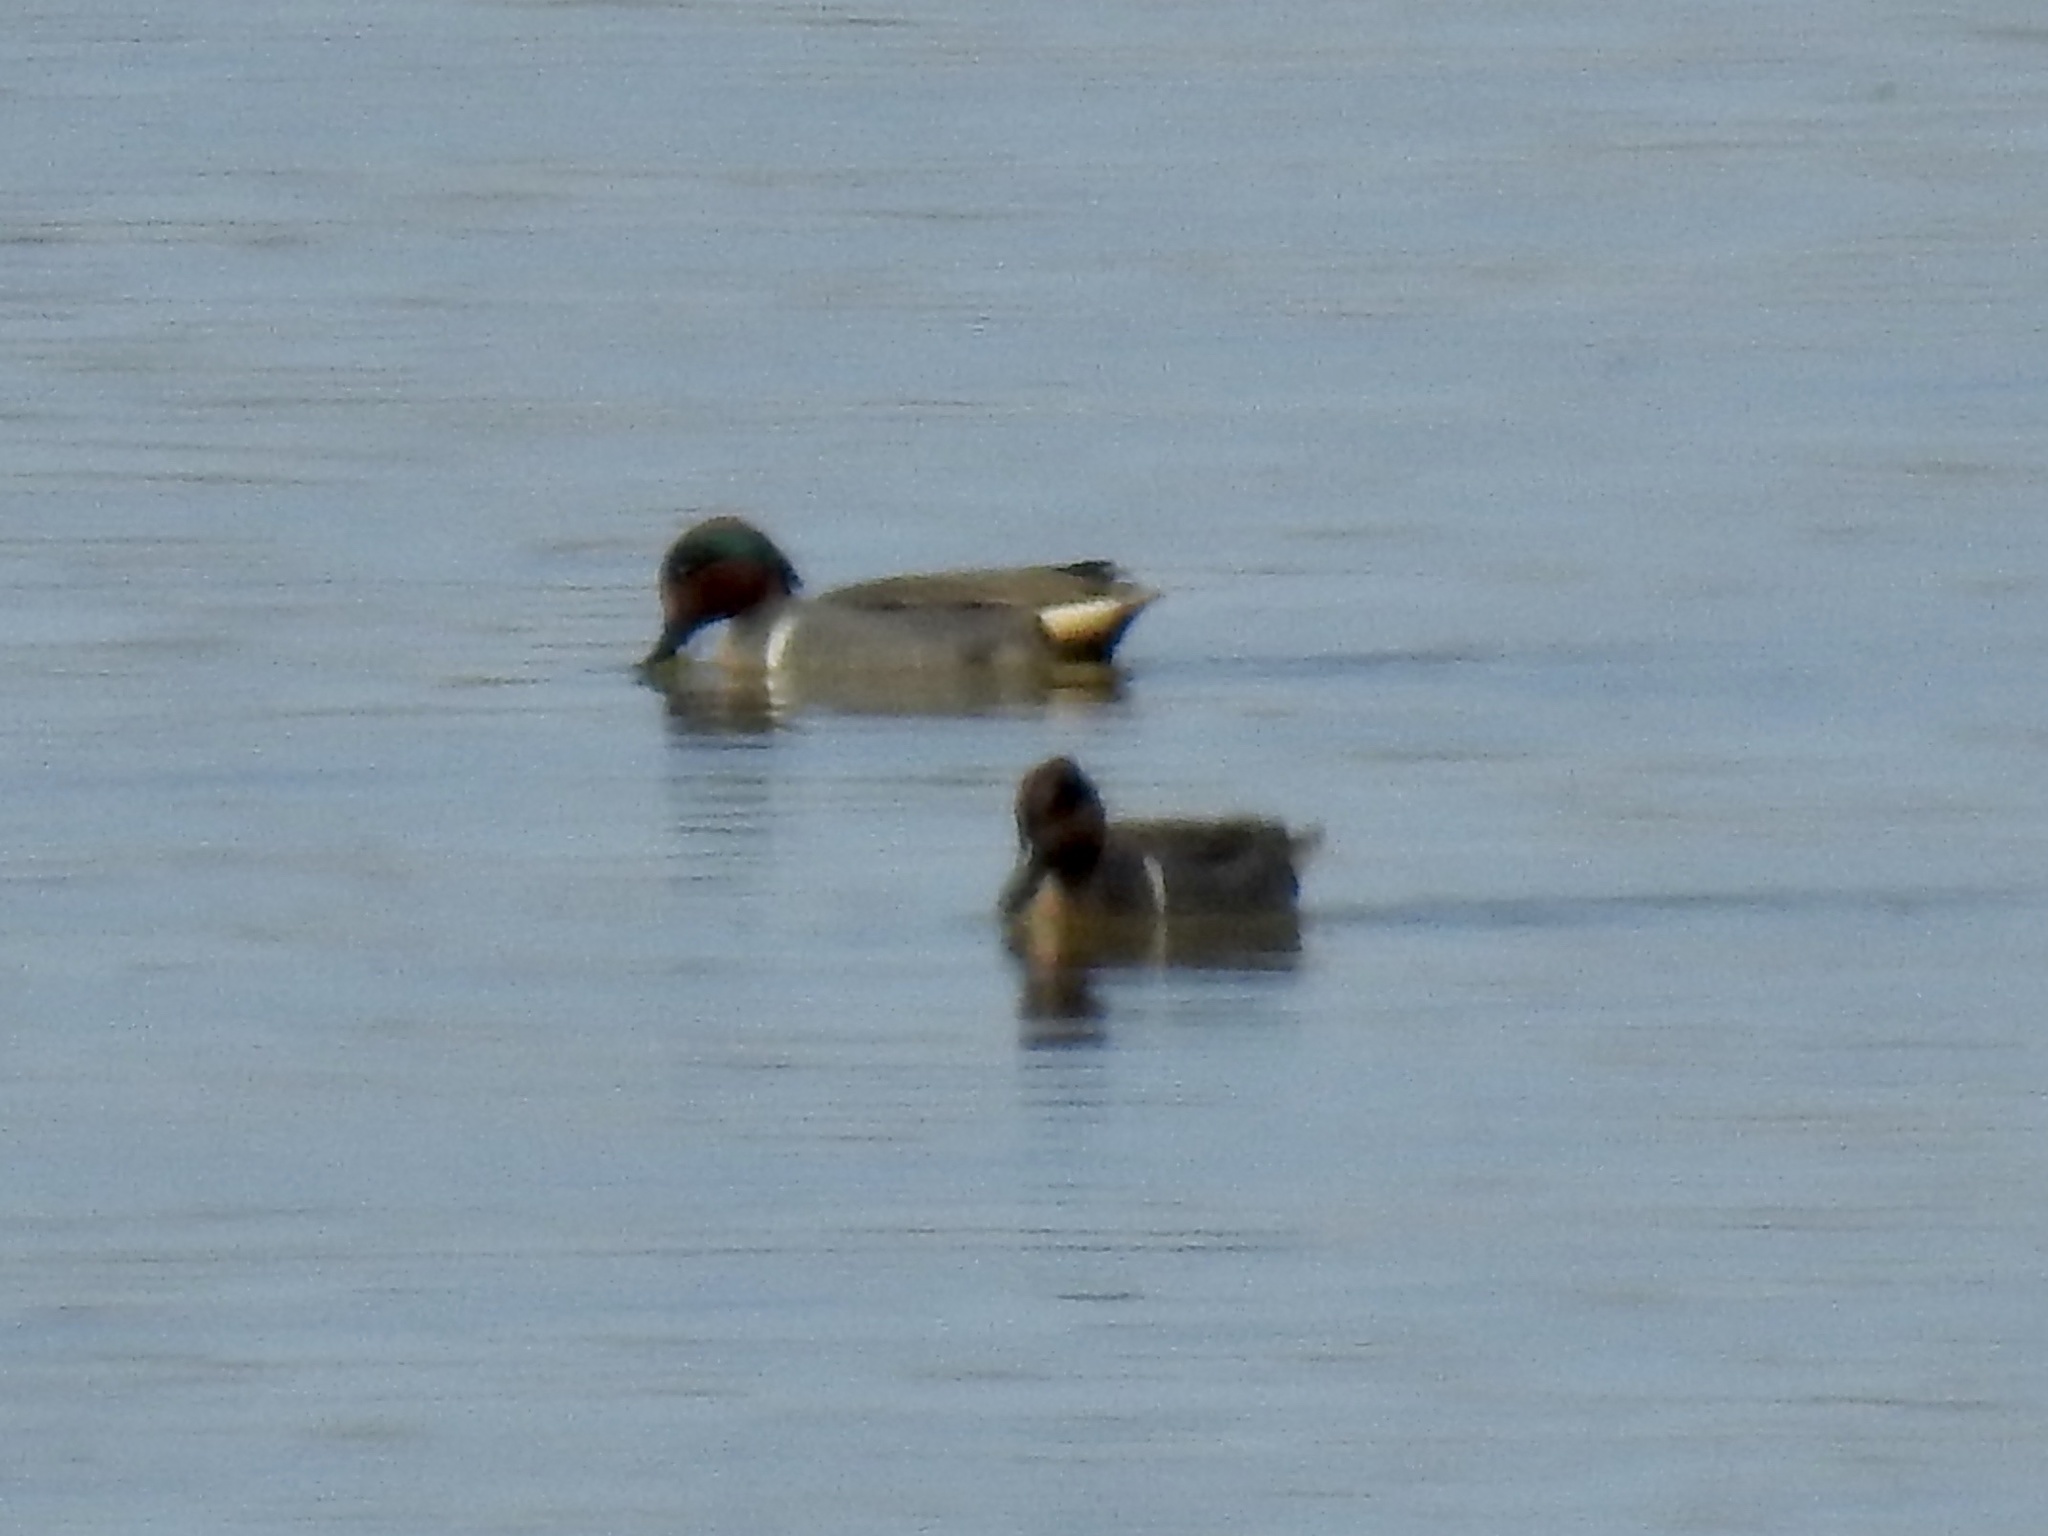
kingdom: Animalia
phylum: Chordata
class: Aves
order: Anseriformes
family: Anatidae
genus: Anas
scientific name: Anas crecca
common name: Eurasian teal
